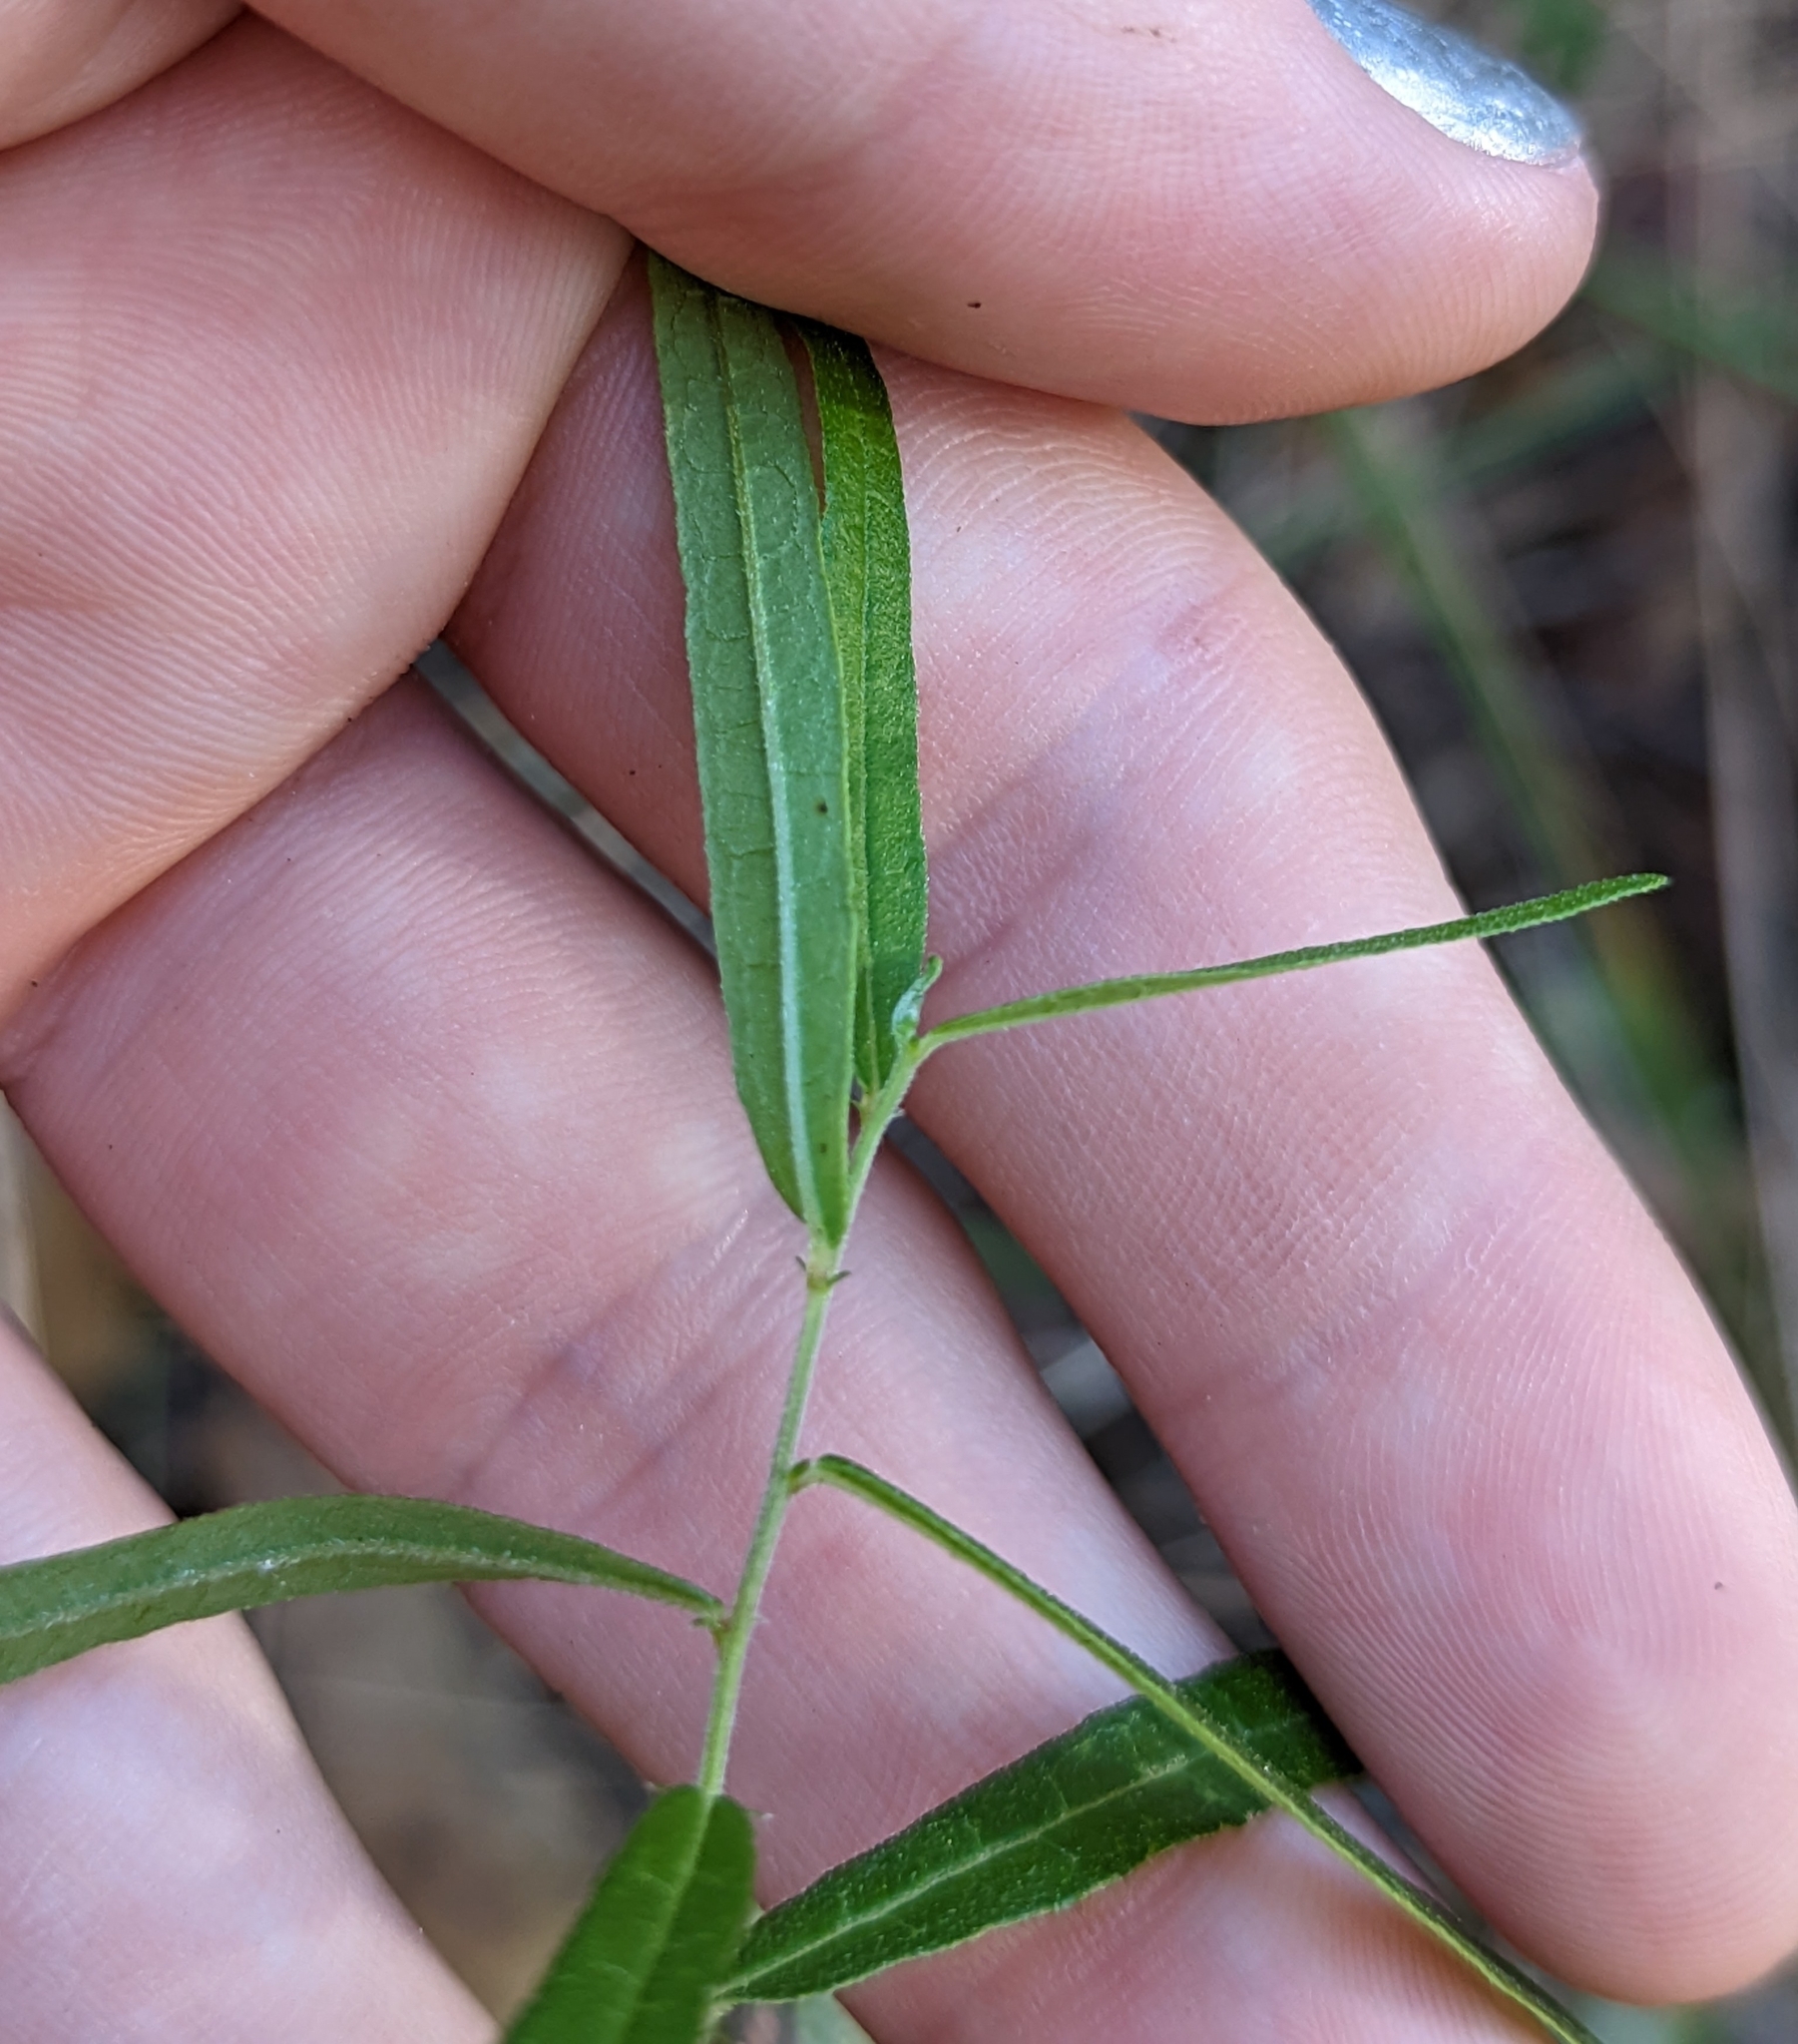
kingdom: Plantae
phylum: Tracheophyta
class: Magnoliopsida
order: Malpighiales
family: Euphorbiaceae
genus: Tragia
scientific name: Tragia urens
